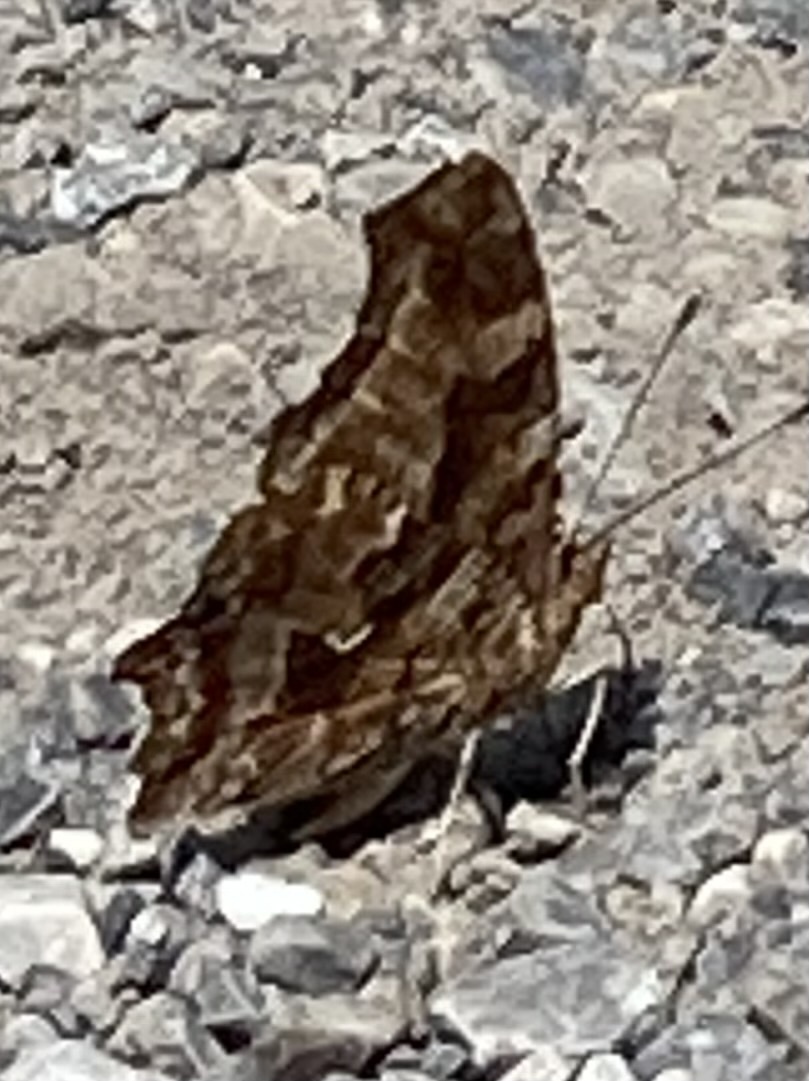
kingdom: Animalia
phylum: Arthropoda
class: Insecta
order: Lepidoptera
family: Nymphalidae
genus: Polygonia
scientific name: Polygonia comma
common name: Eastern comma
